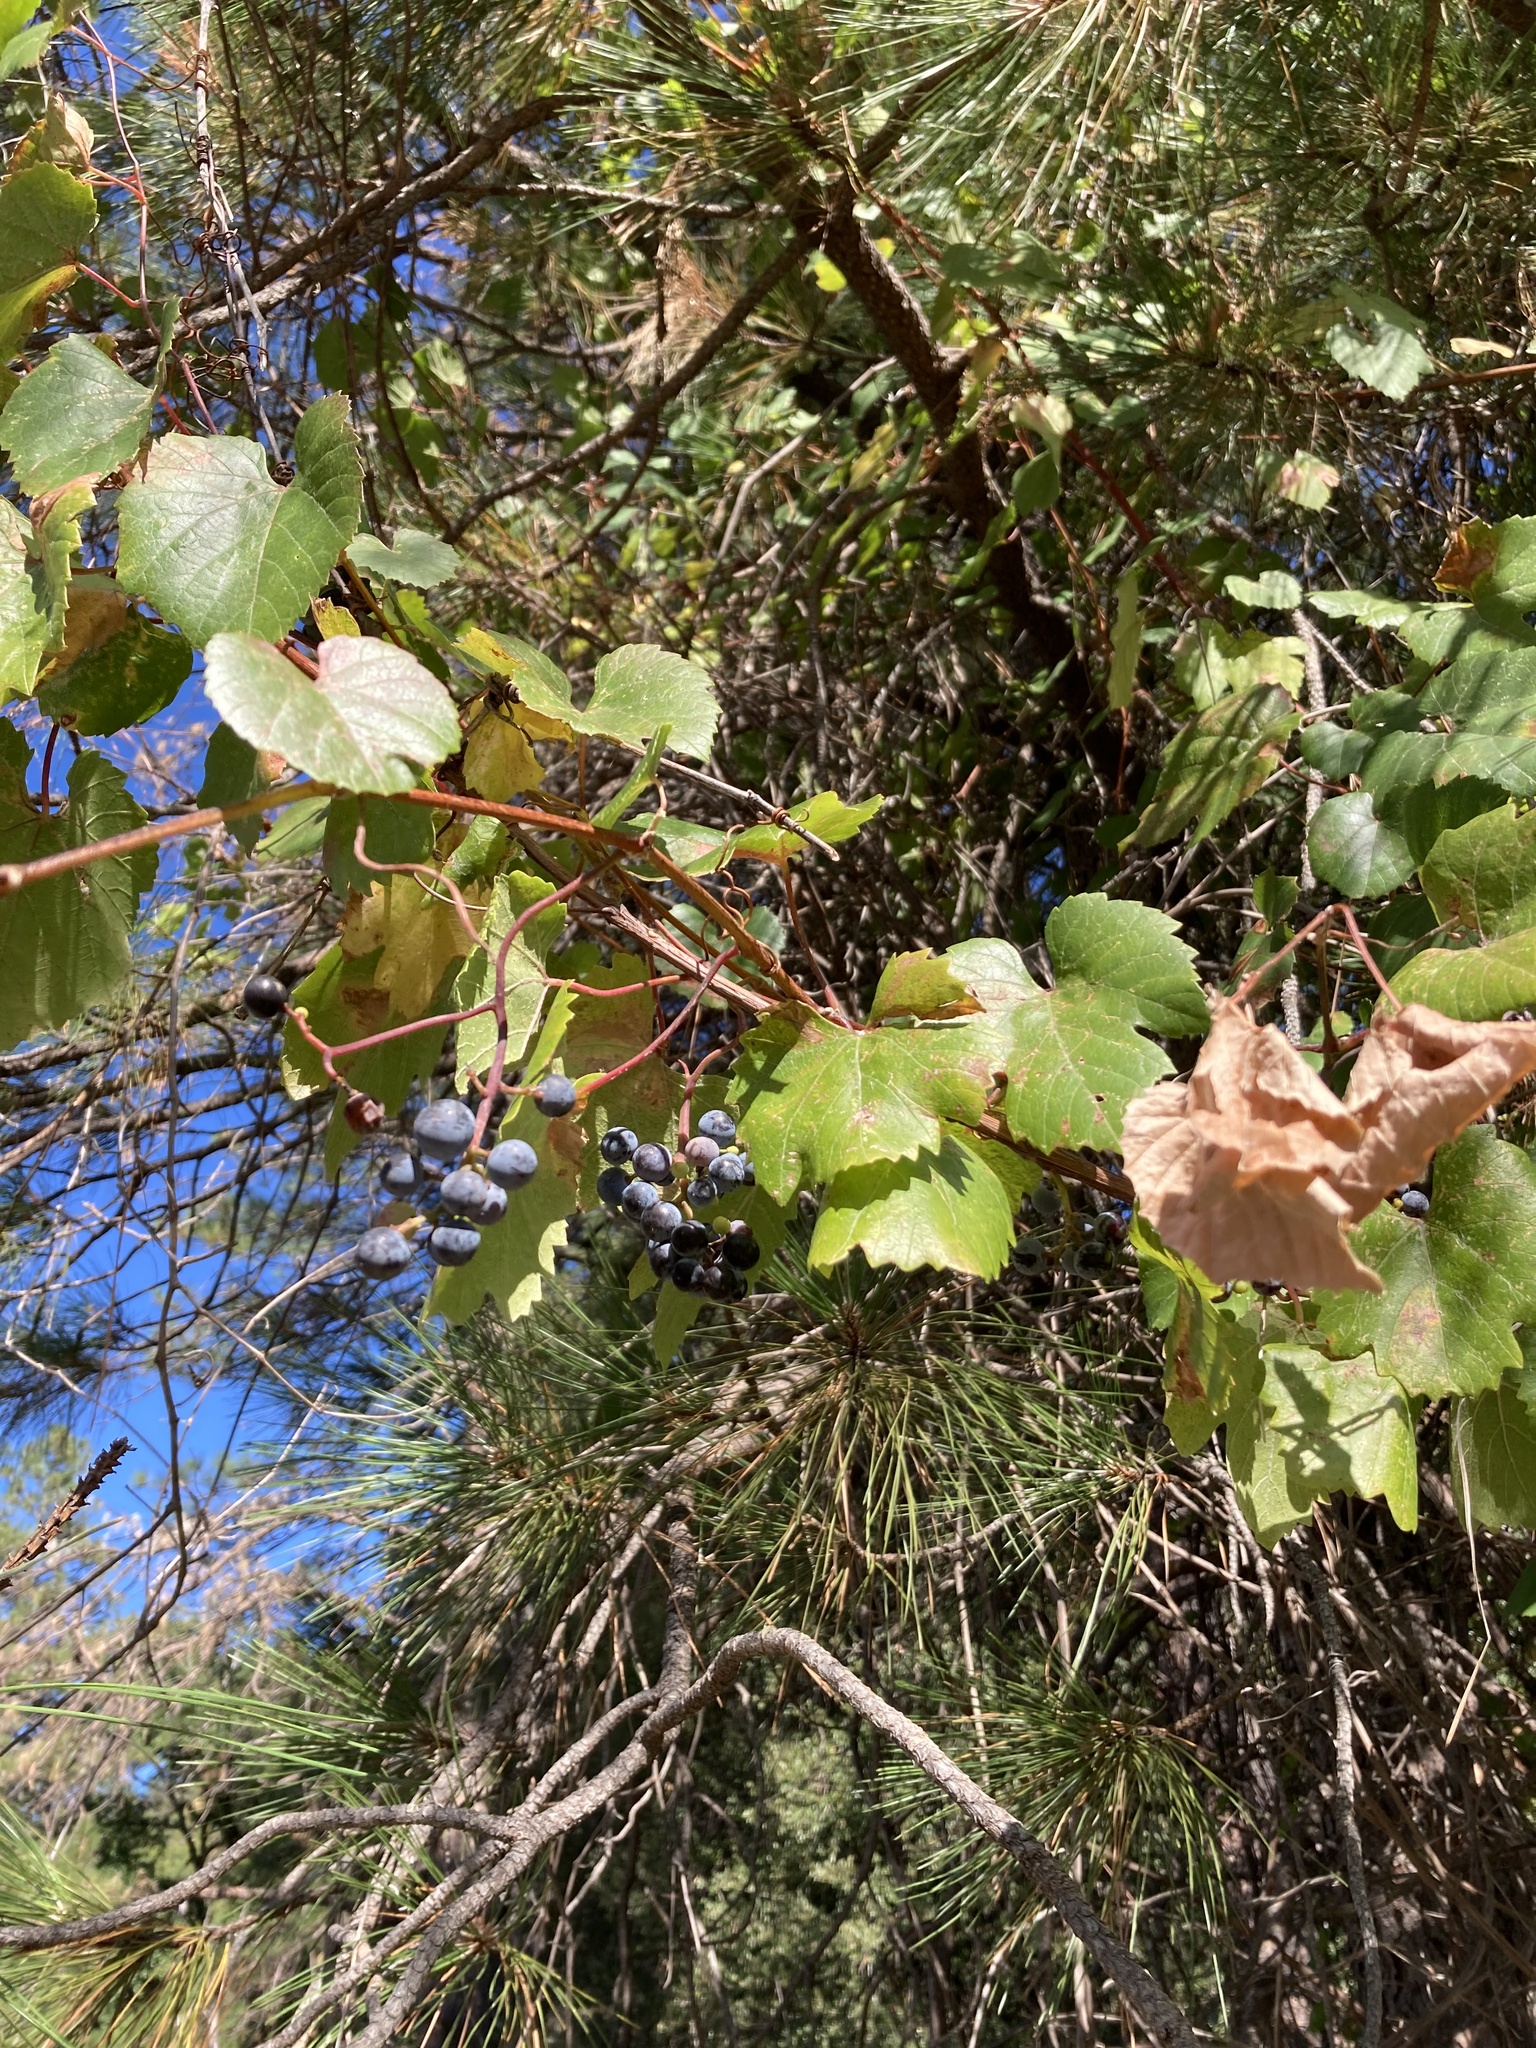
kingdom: Plantae
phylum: Tracheophyta
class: Magnoliopsida
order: Vitales
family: Vitaceae
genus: Vitis
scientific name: Vitis californica
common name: California wild grape
